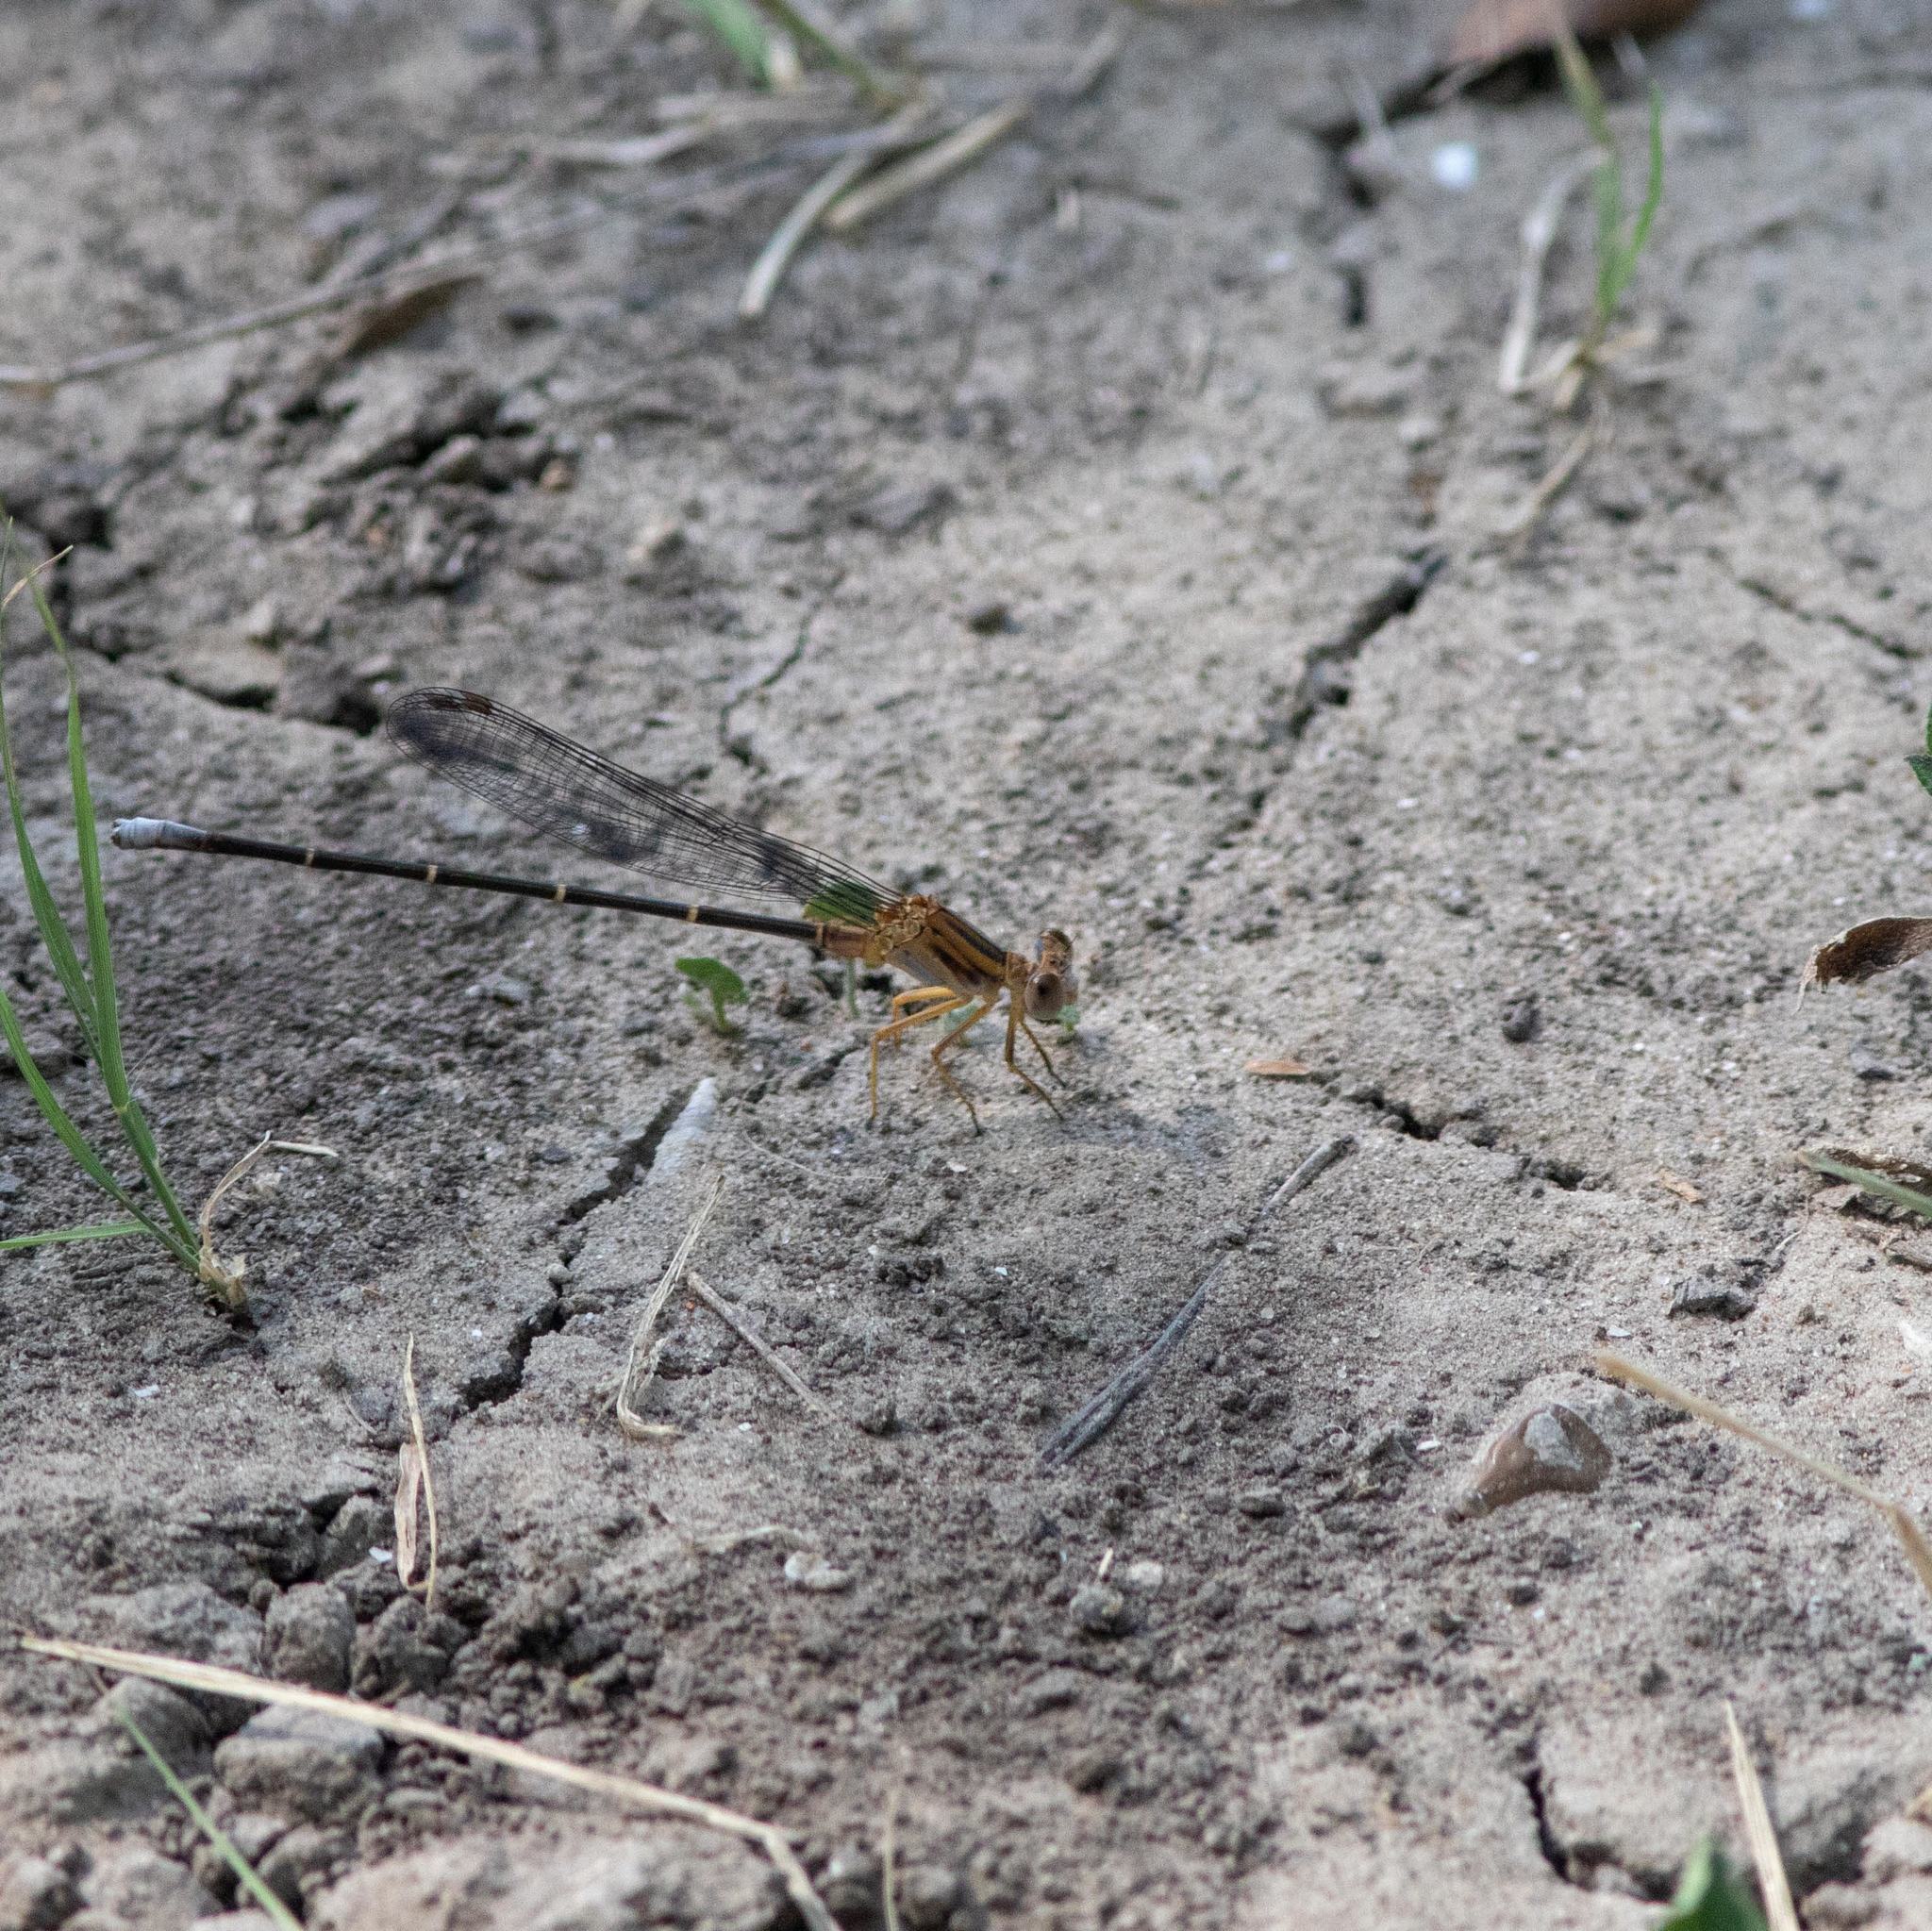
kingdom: Animalia
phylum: Arthropoda
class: Insecta
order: Odonata
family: Coenagrionidae
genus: Argia
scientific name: Argia moesta
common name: Powdered dancer
